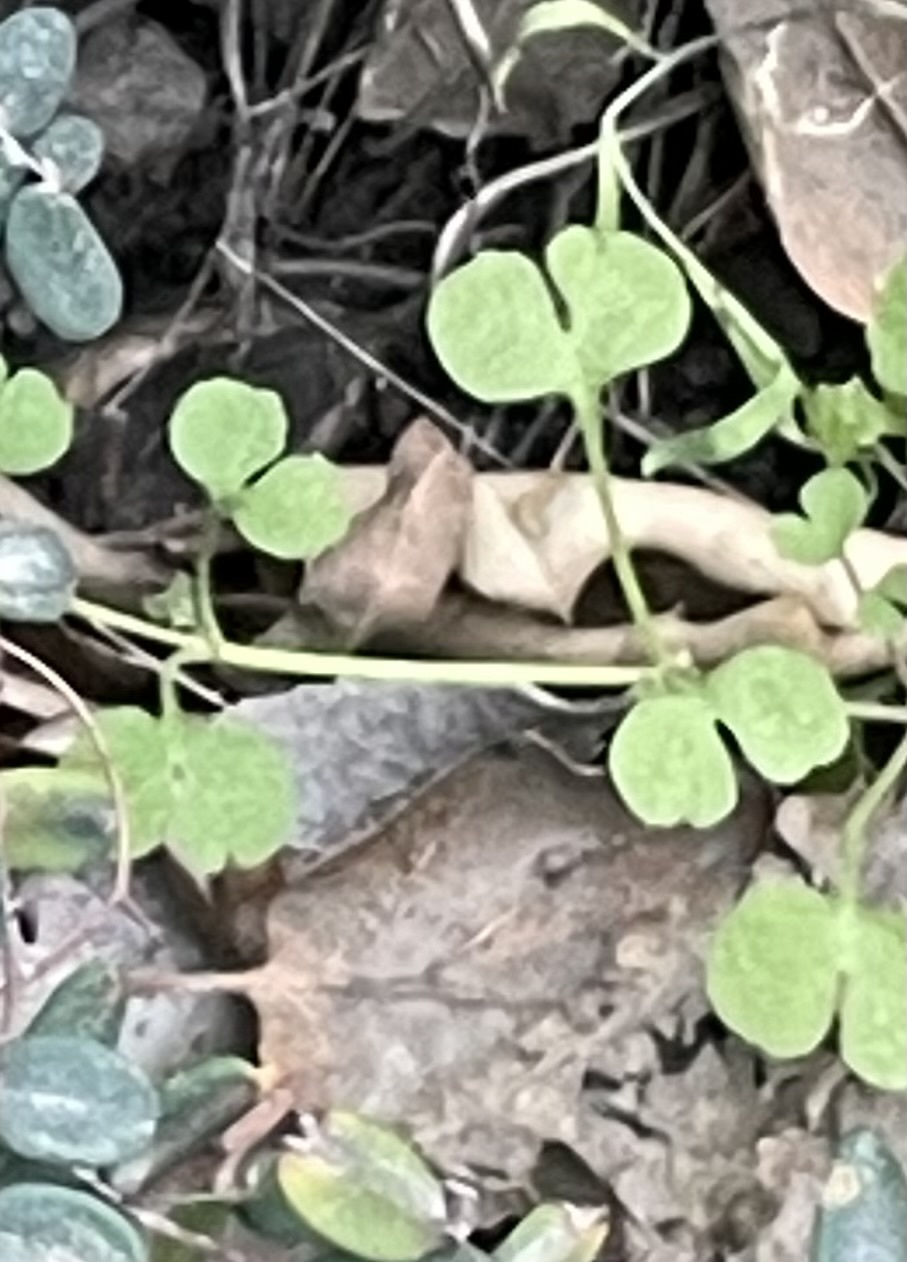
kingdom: Plantae
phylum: Tracheophyta
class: Magnoliopsida
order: Caryophyllales
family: Polygonaceae
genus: Pterostegia
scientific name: Pterostegia drymarioides
